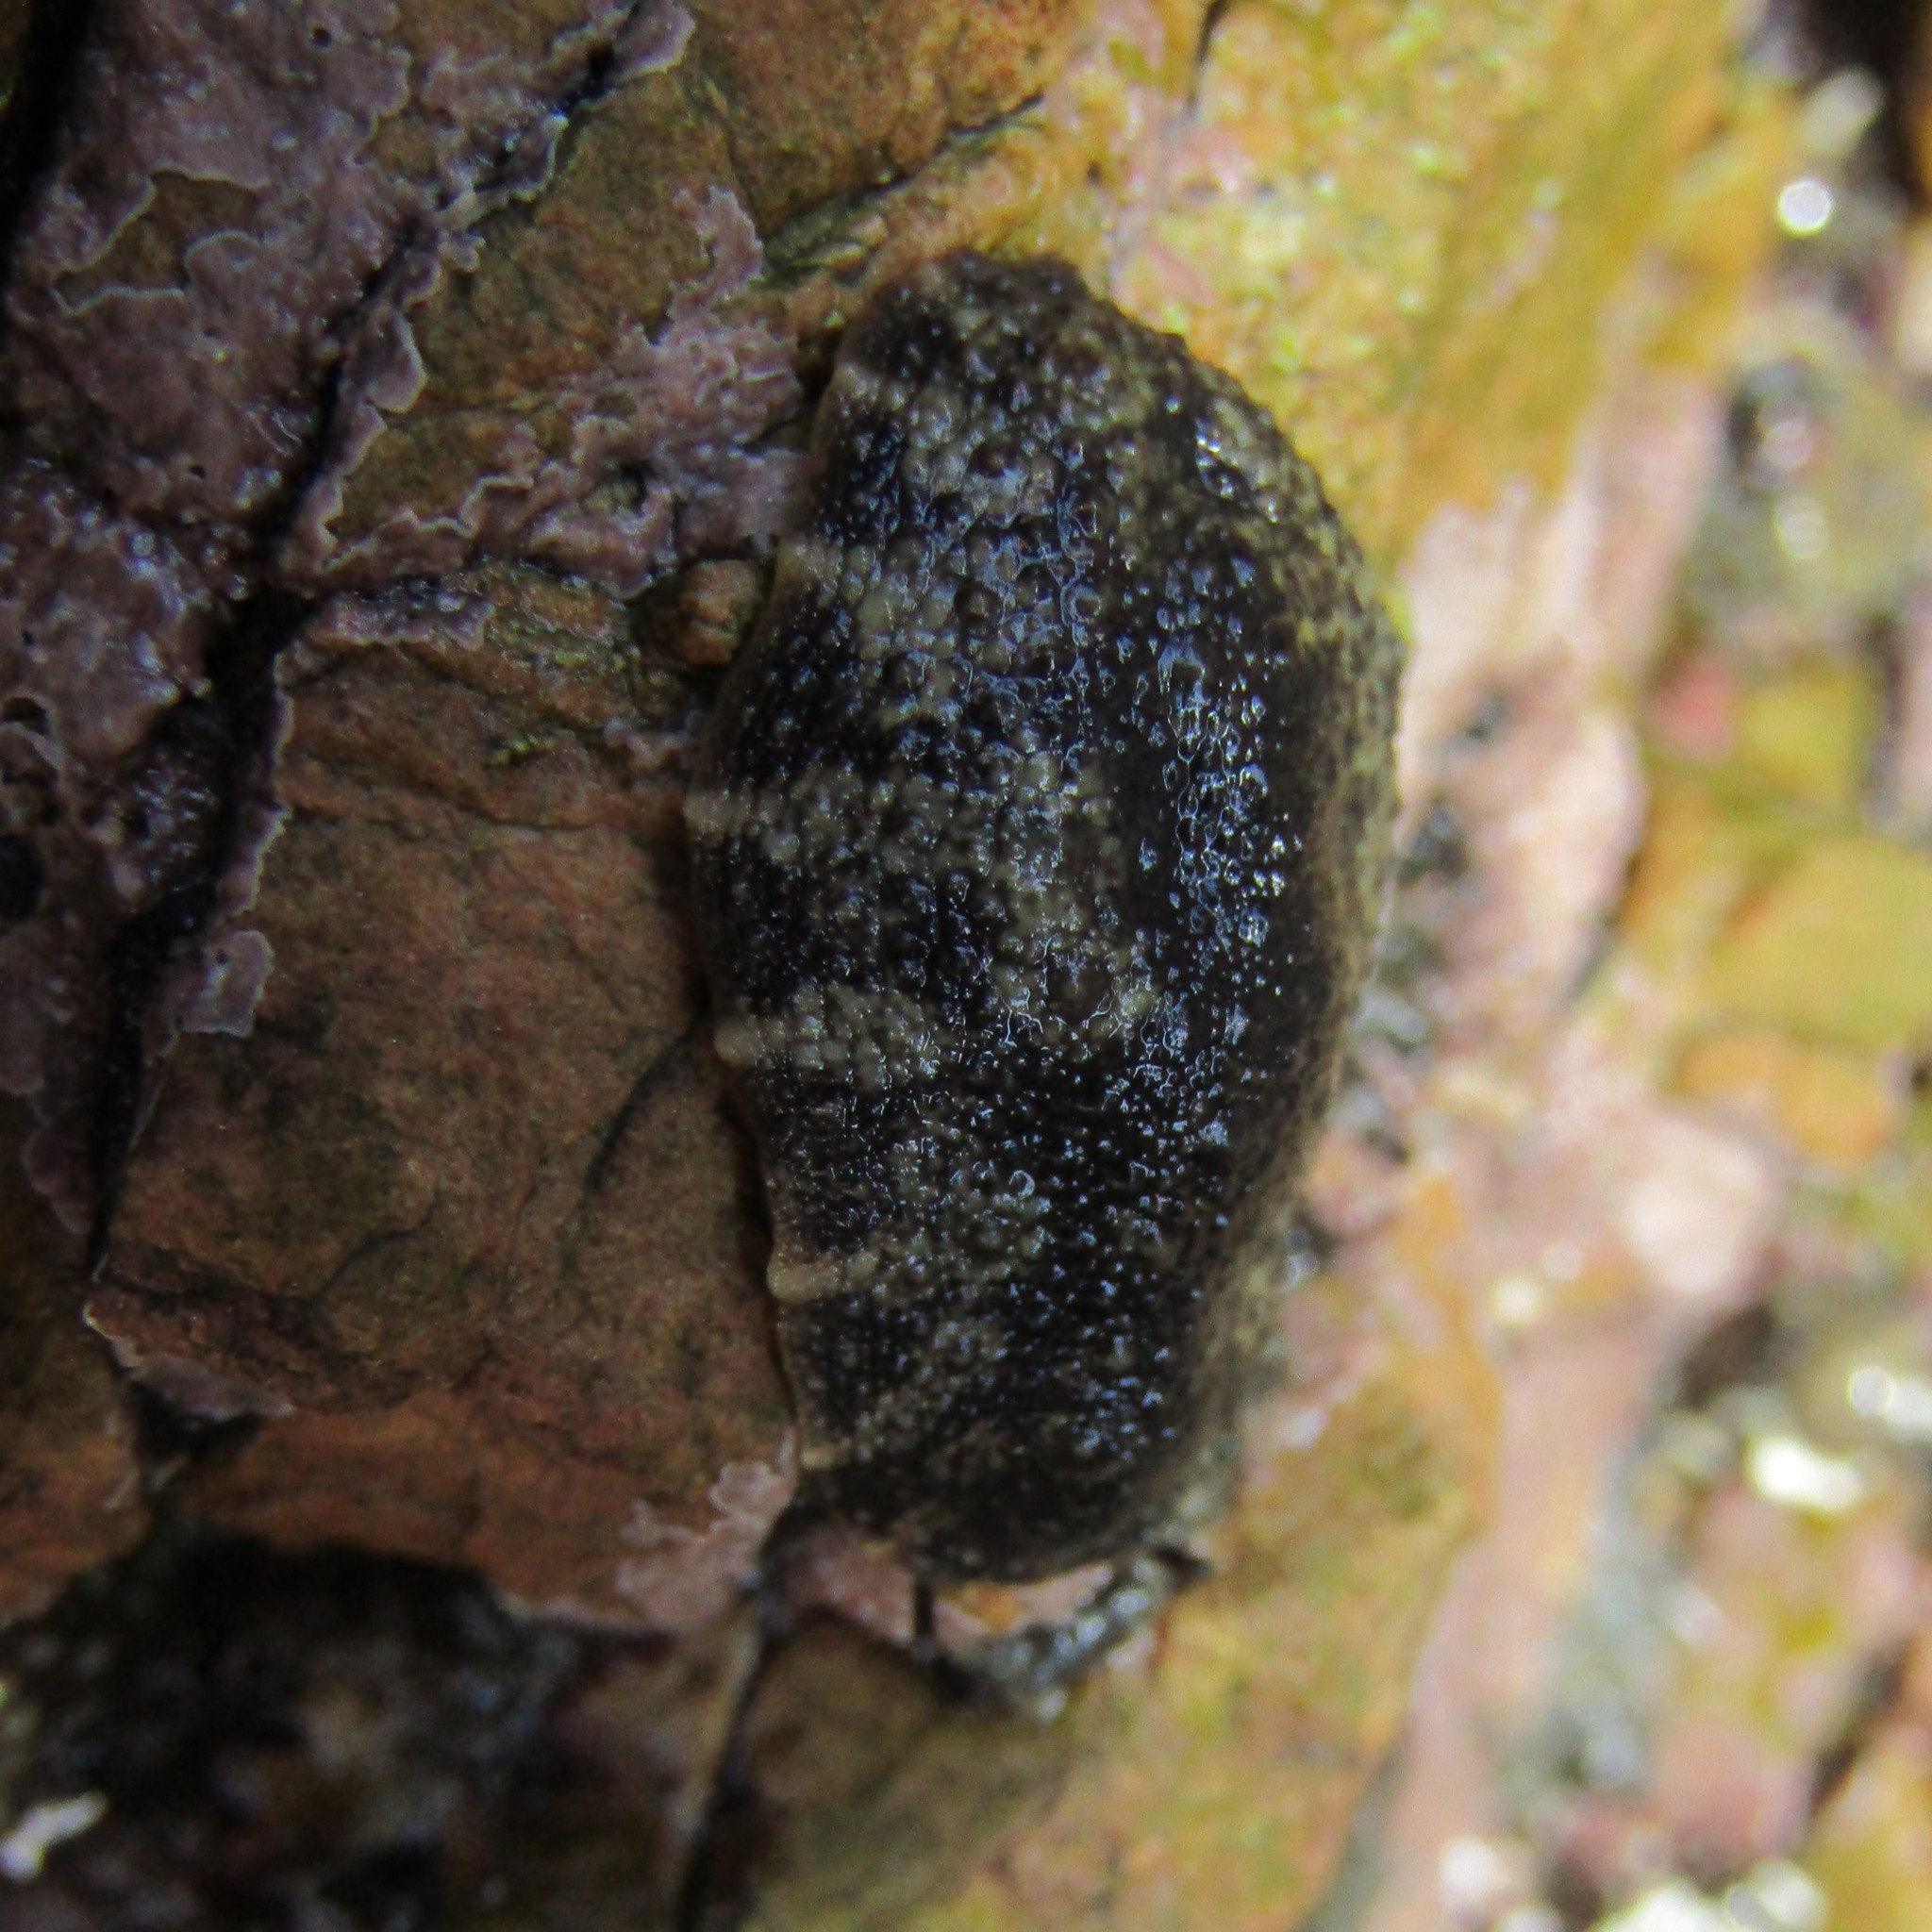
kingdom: Animalia
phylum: Mollusca
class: Gastropoda
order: Systellommatophora
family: Onchidiidae
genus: Onchidella
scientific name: Onchidella nigricans
